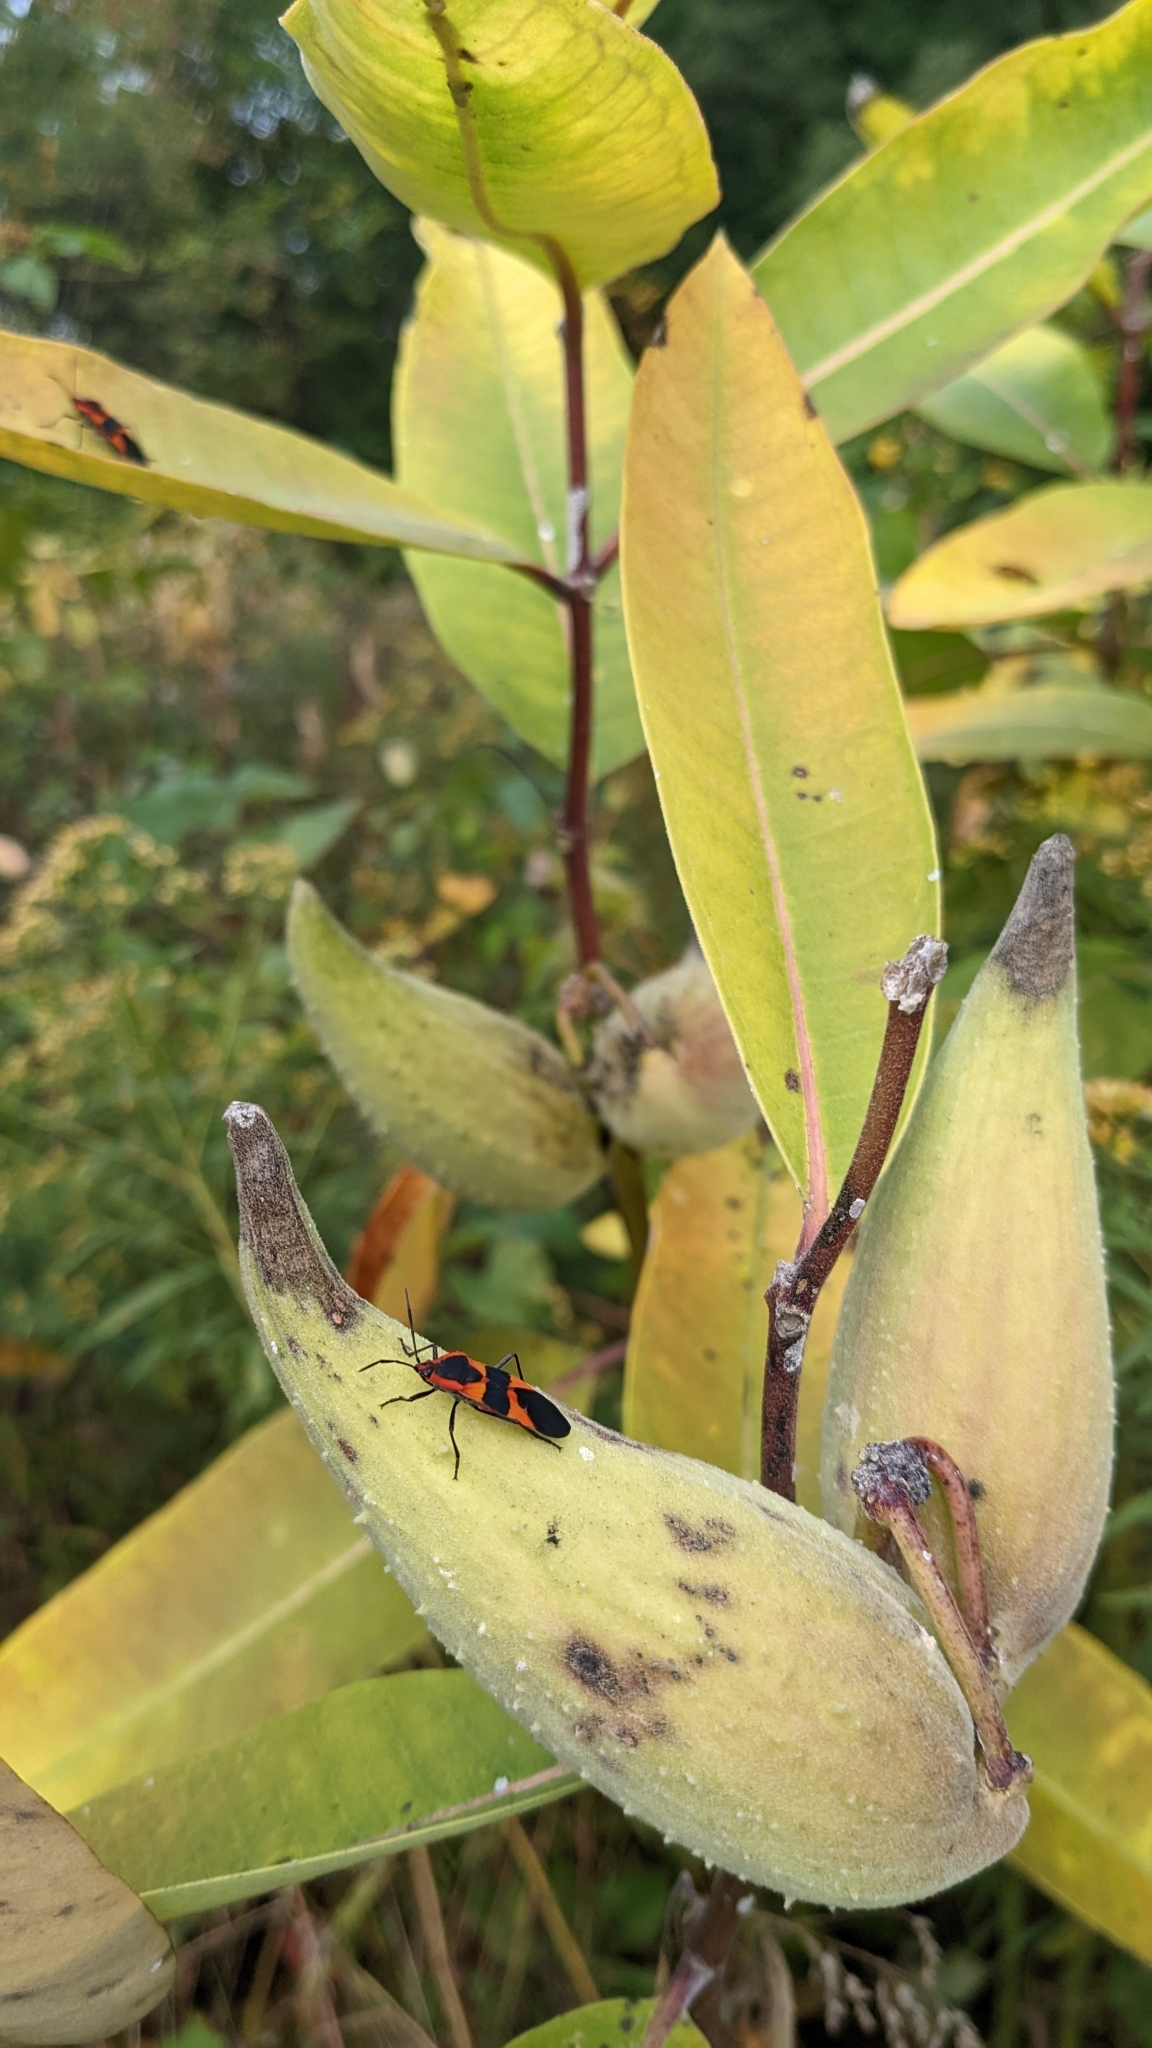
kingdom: Plantae
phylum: Tracheophyta
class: Magnoliopsida
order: Gentianales
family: Apocynaceae
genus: Asclepias
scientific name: Asclepias syriaca
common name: Common milkweed
